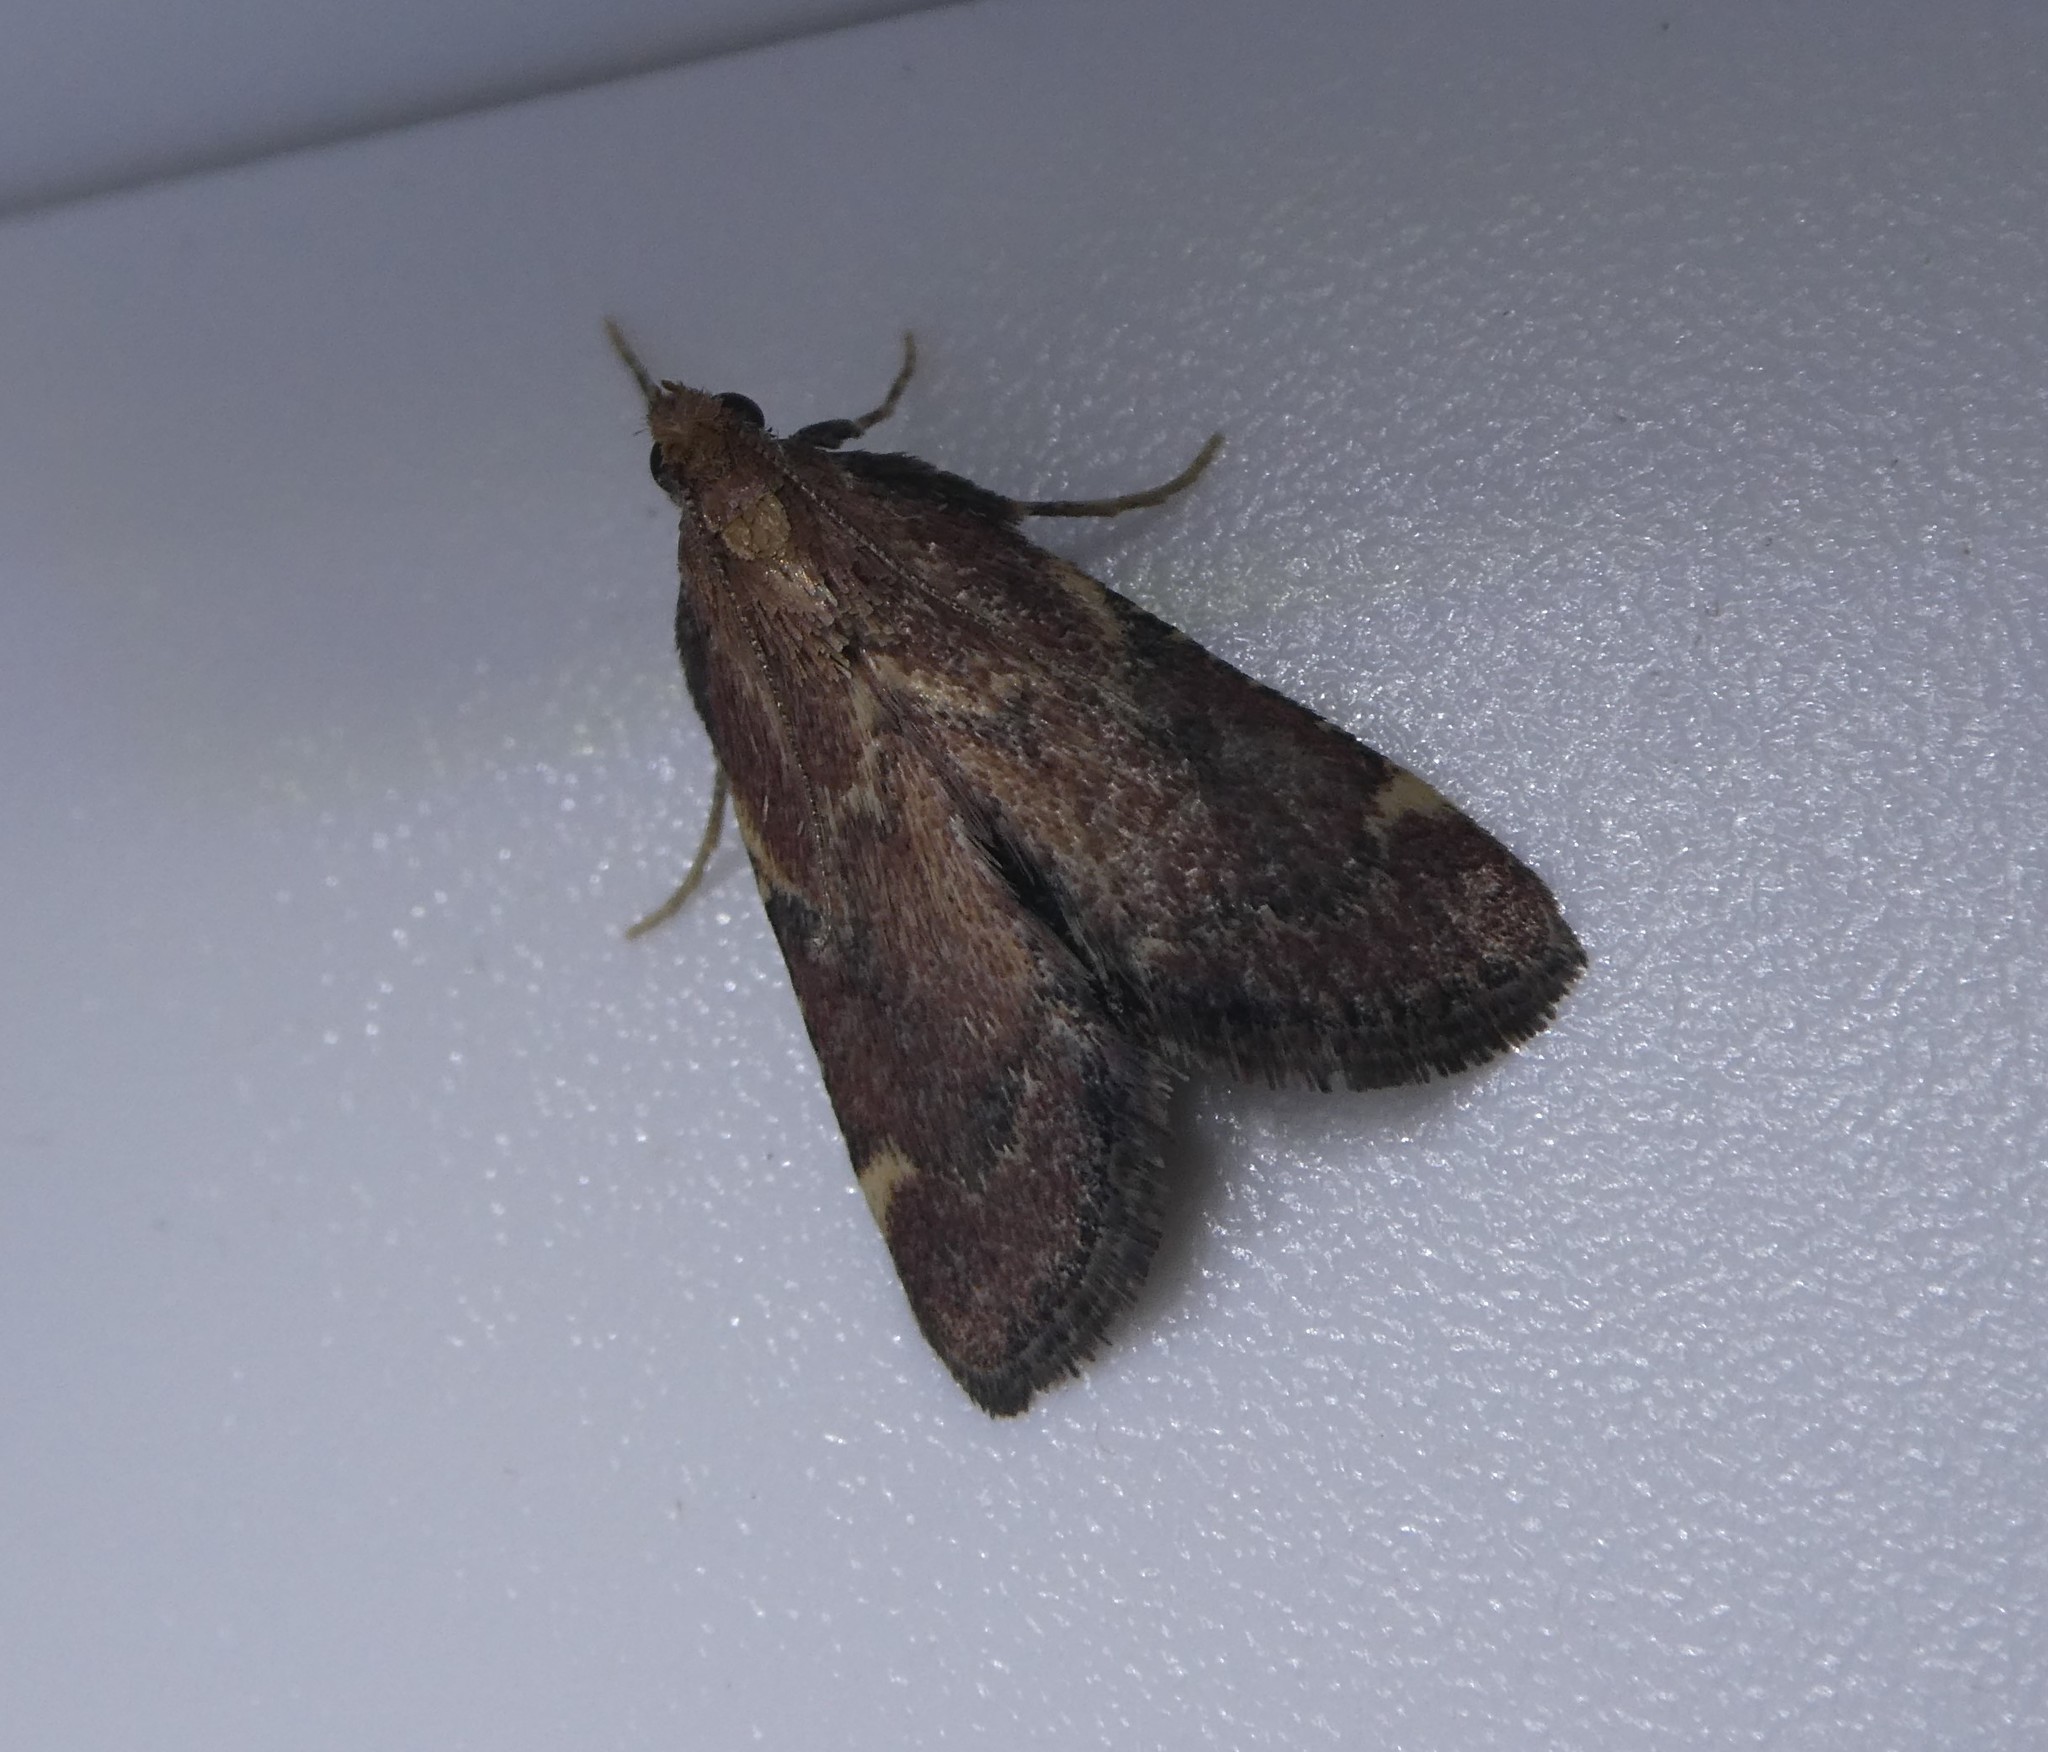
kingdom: Animalia
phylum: Arthropoda
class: Insecta
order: Lepidoptera
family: Pyralidae
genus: Hypsopygia
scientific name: Hypsopygia intermedialis
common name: Red-shawled moth
